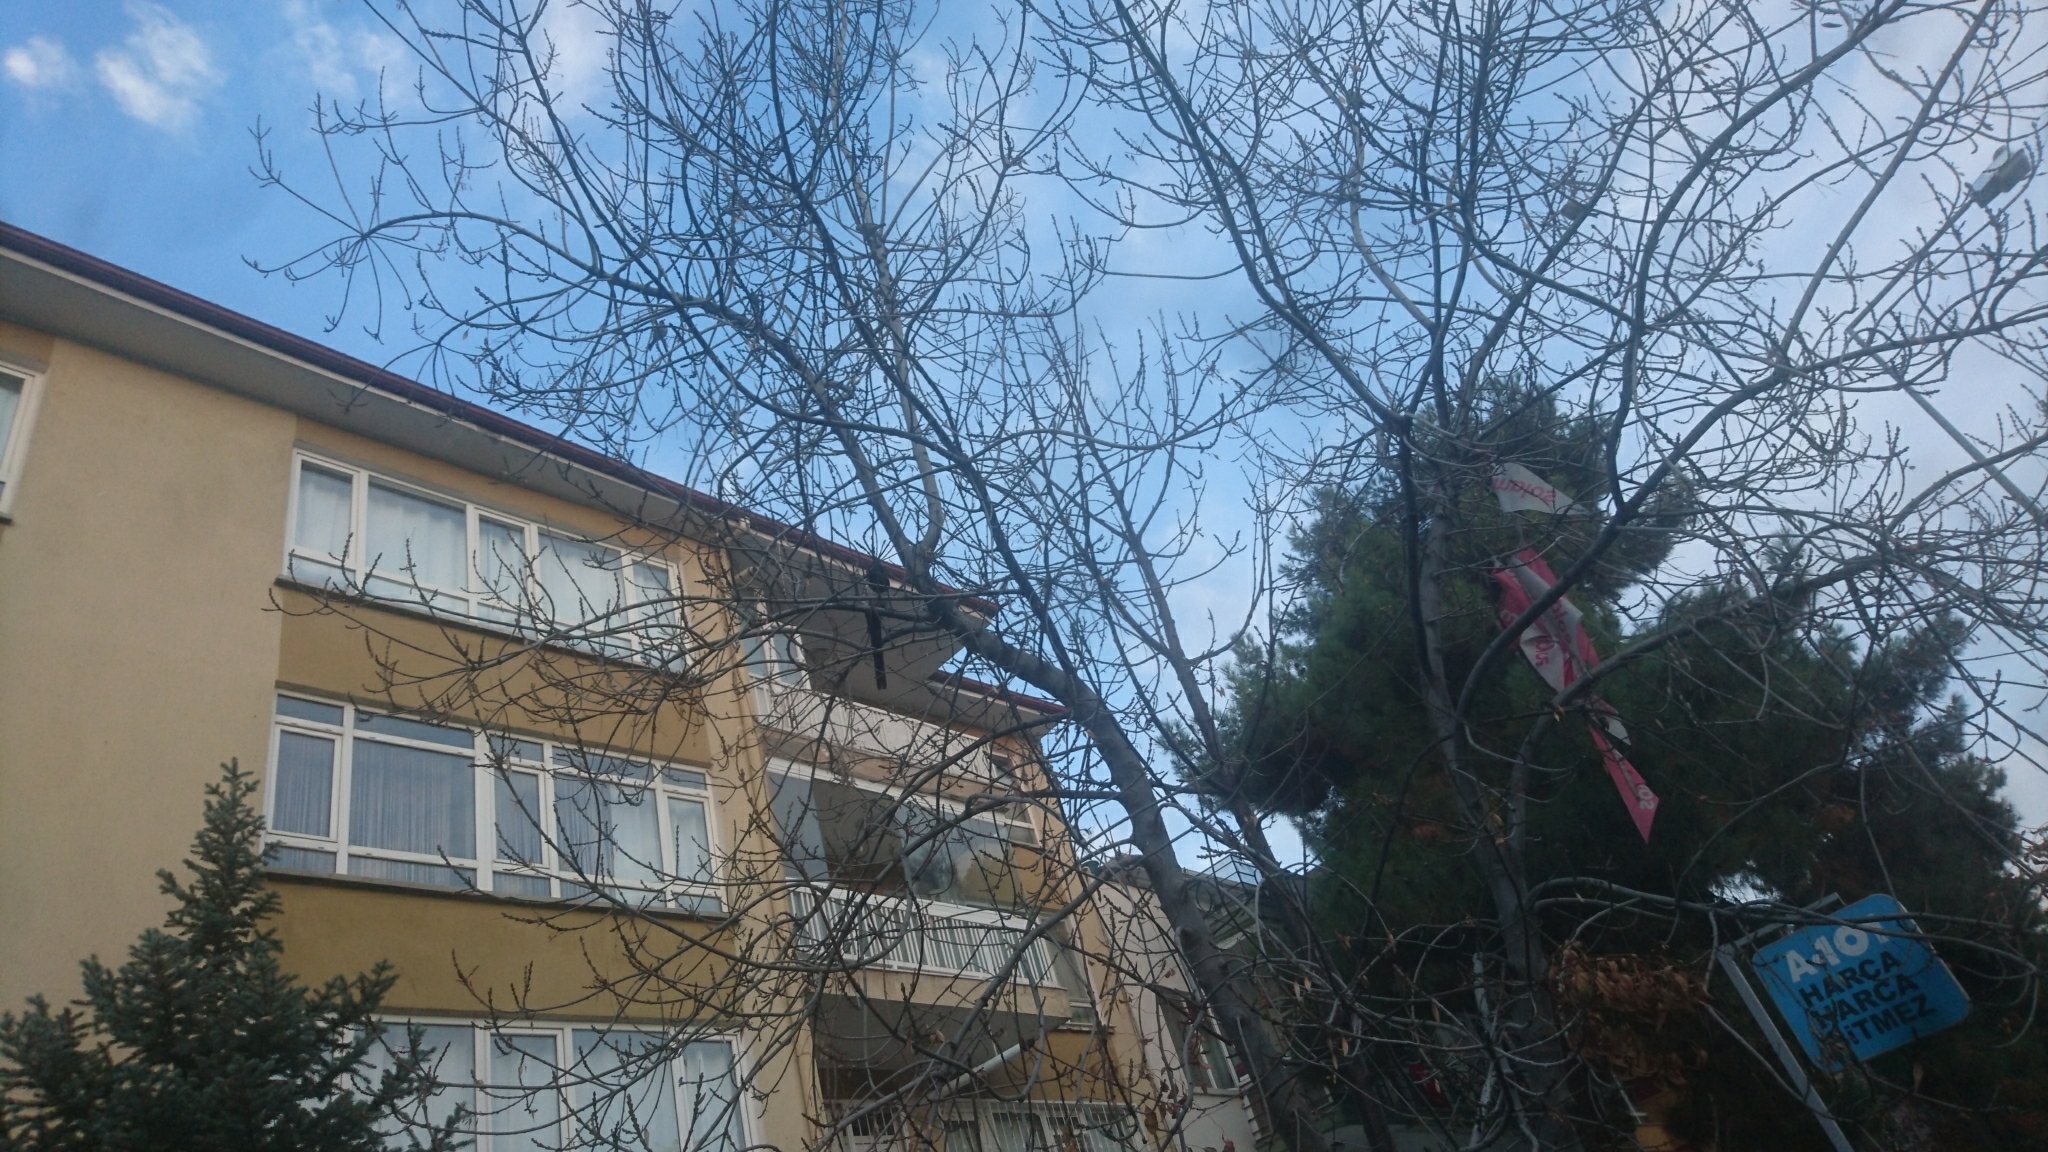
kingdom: Animalia
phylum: Chordata
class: Aves
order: Passeriformes
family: Corvidae
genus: Pica
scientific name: Pica pica
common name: Eurasian magpie
